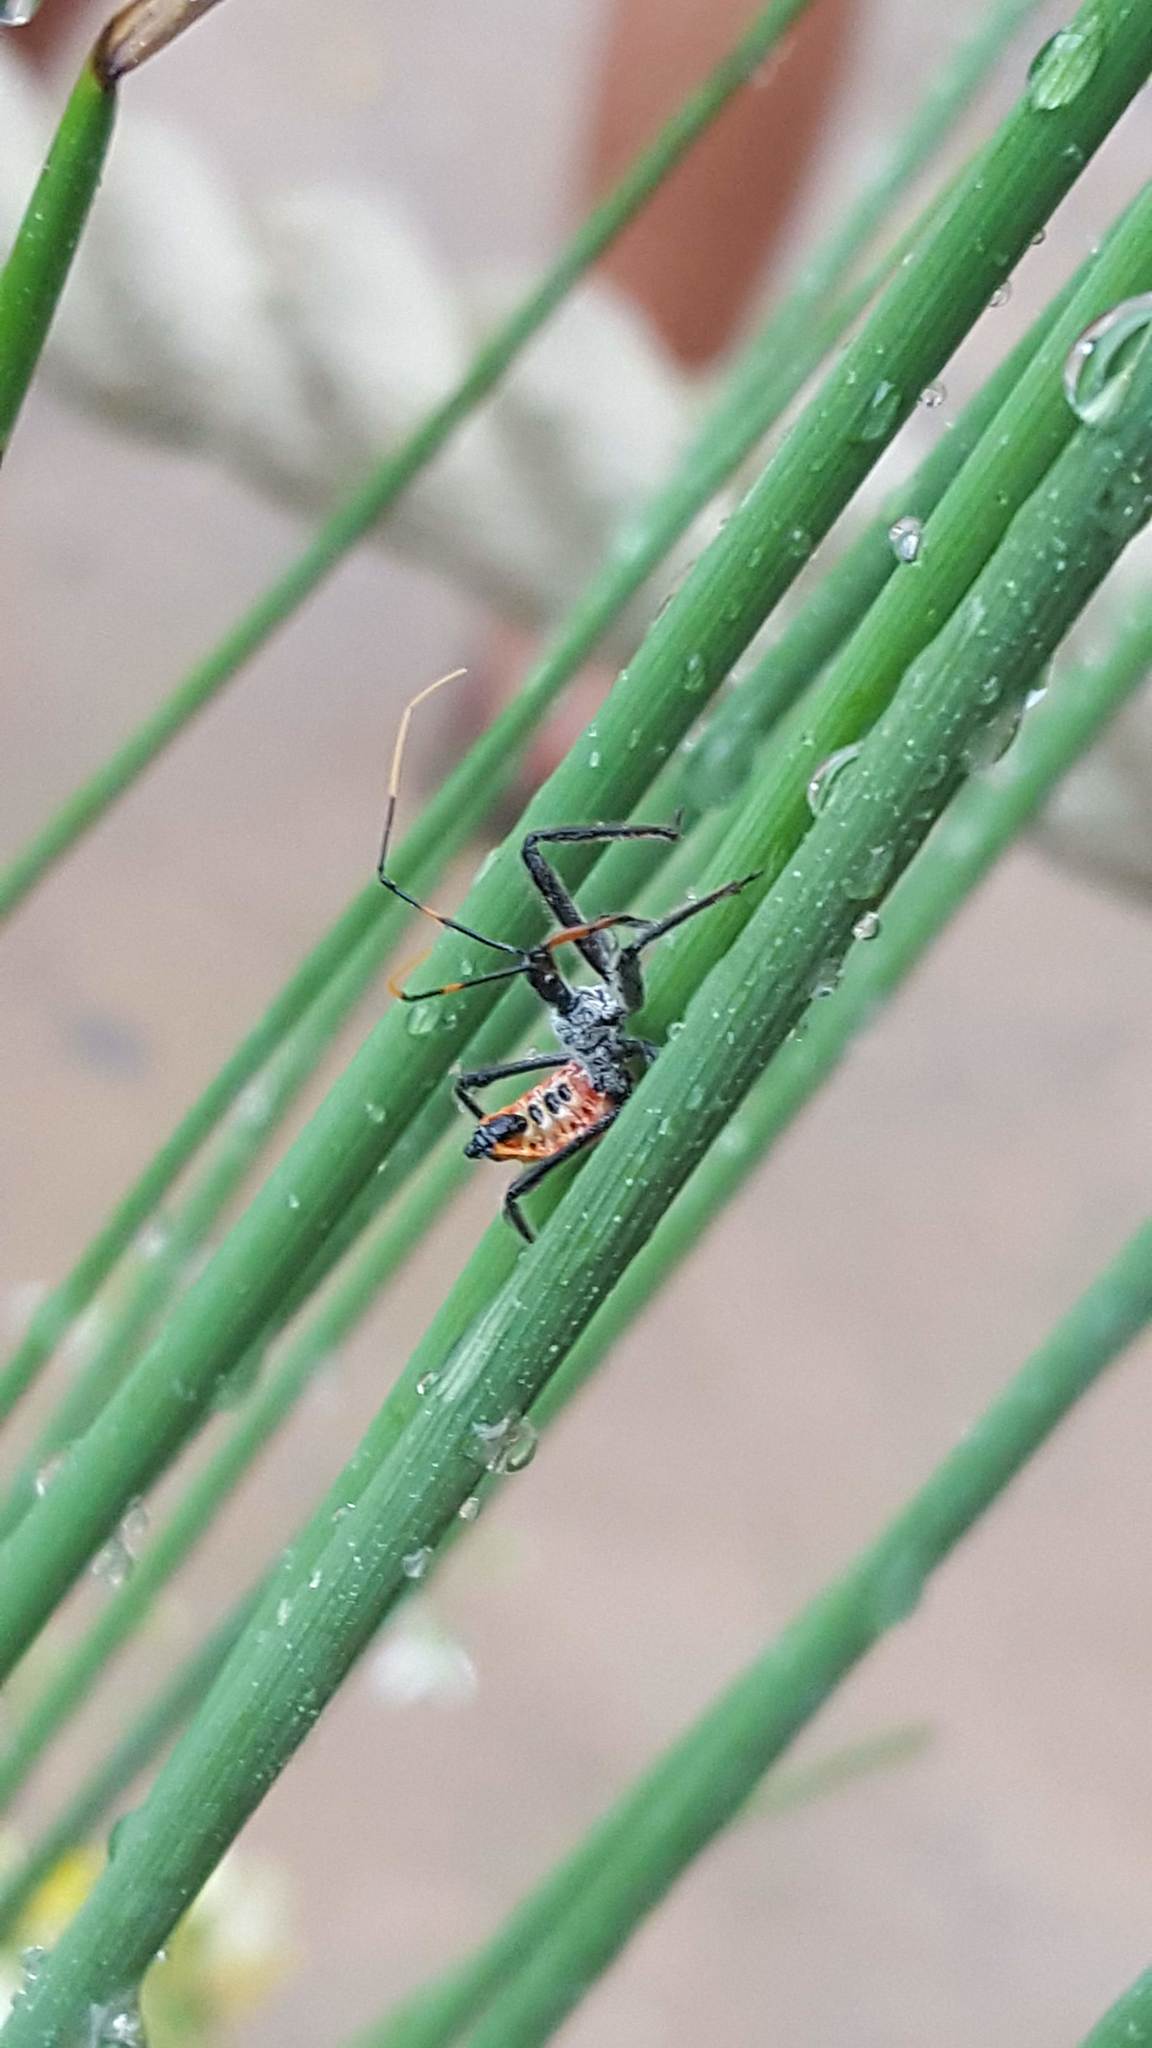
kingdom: Animalia
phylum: Arthropoda
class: Insecta
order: Hemiptera
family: Reduviidae
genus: Arilus
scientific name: Arilus cristatus
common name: North american wheel bug
